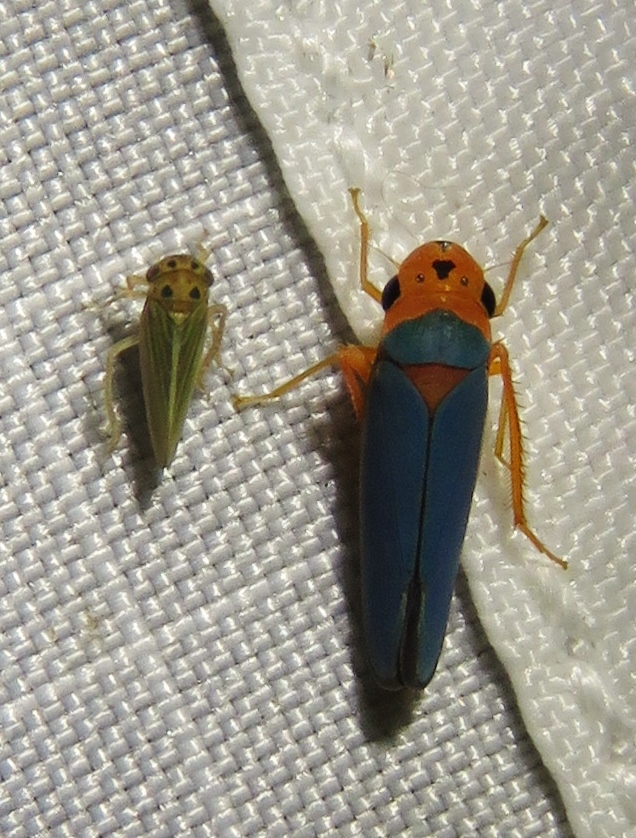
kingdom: Animalia
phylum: Arthropoda
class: Insecta
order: Hemiptera
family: Cicadellidae
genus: Macunolla
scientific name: Macunolla ventralis
